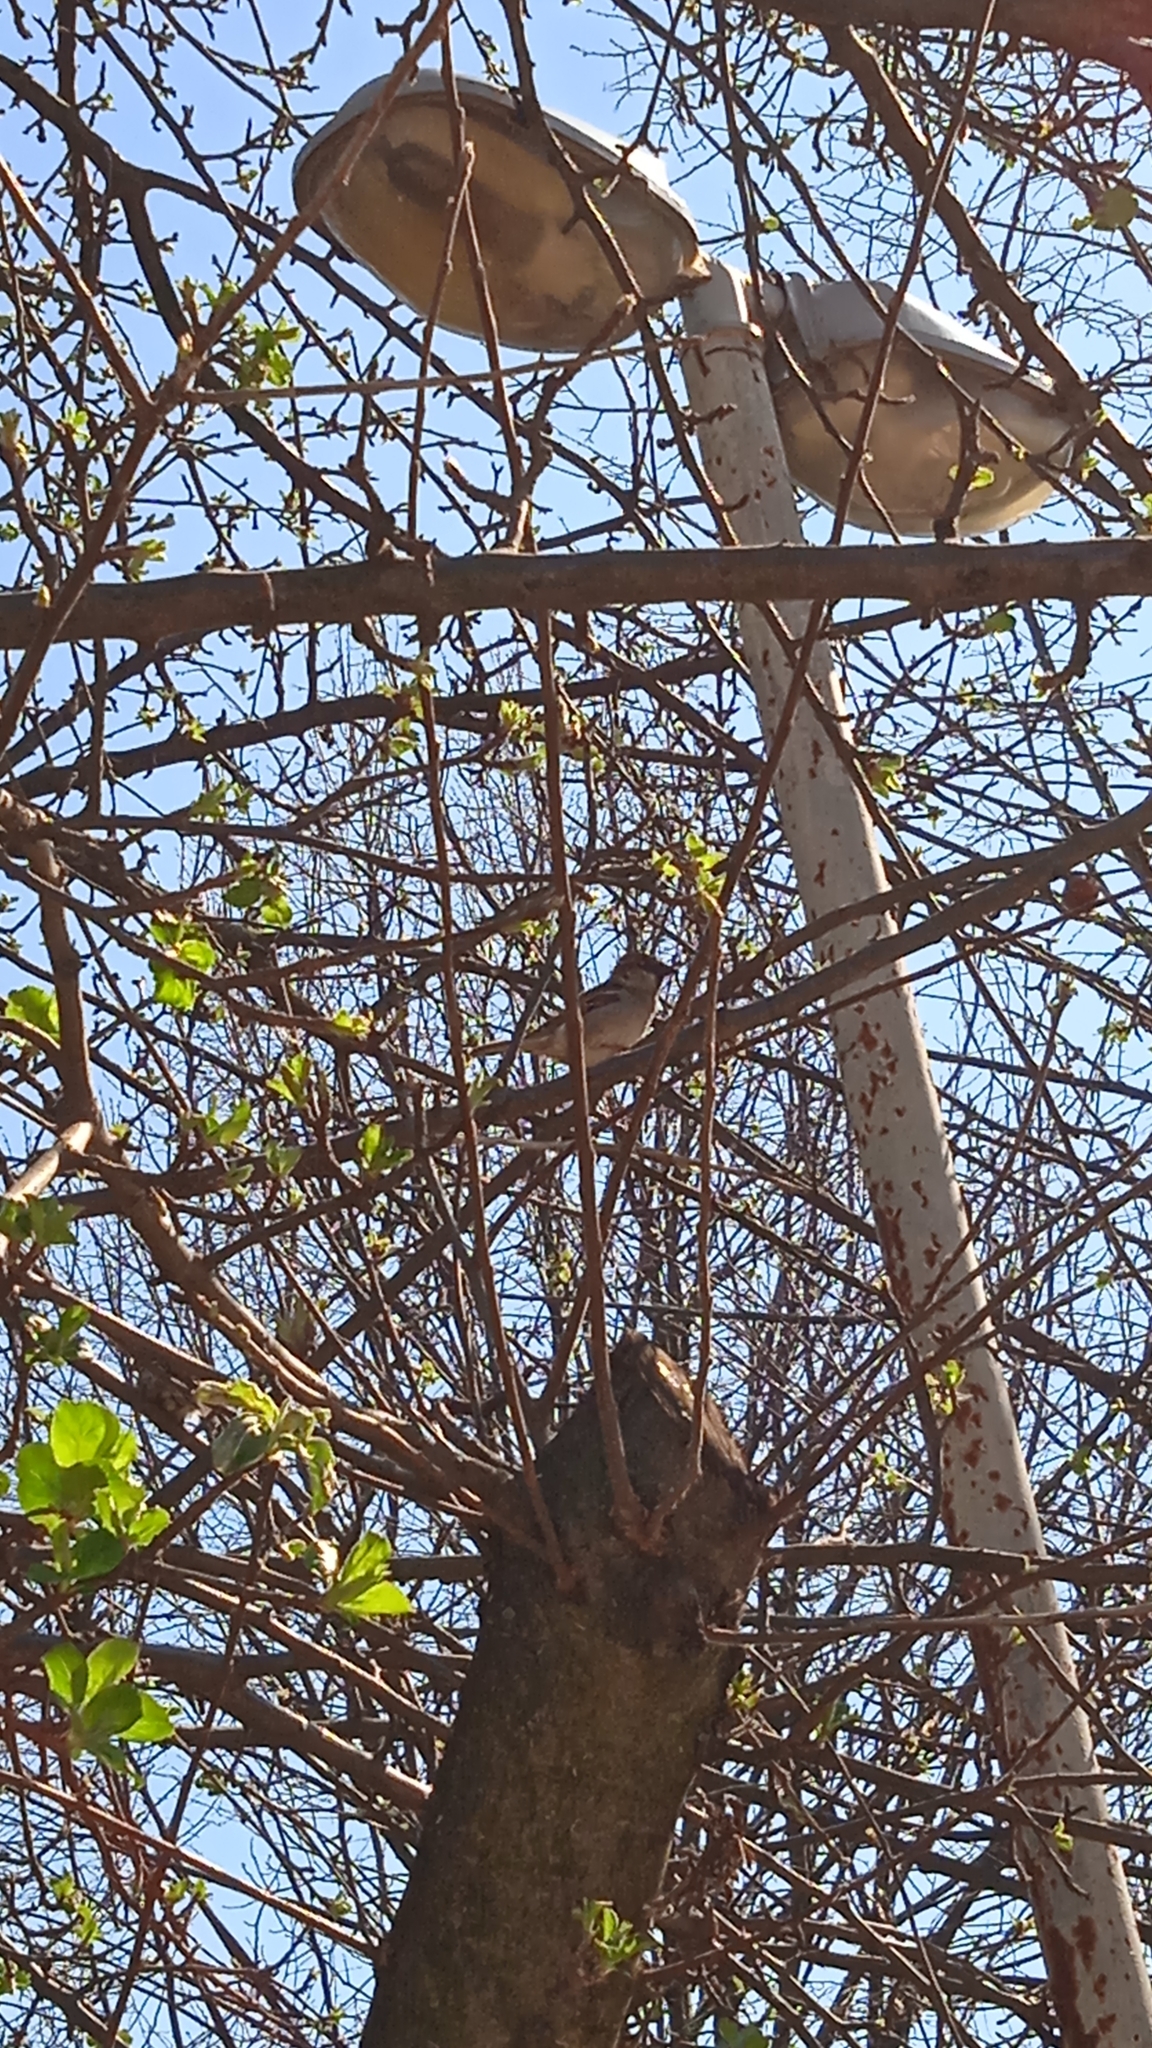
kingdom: Animalia
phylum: Chordata
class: Aves
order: Passeriformes
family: Passeridae
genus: Passer
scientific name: Passer domesticus
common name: House sparrow
